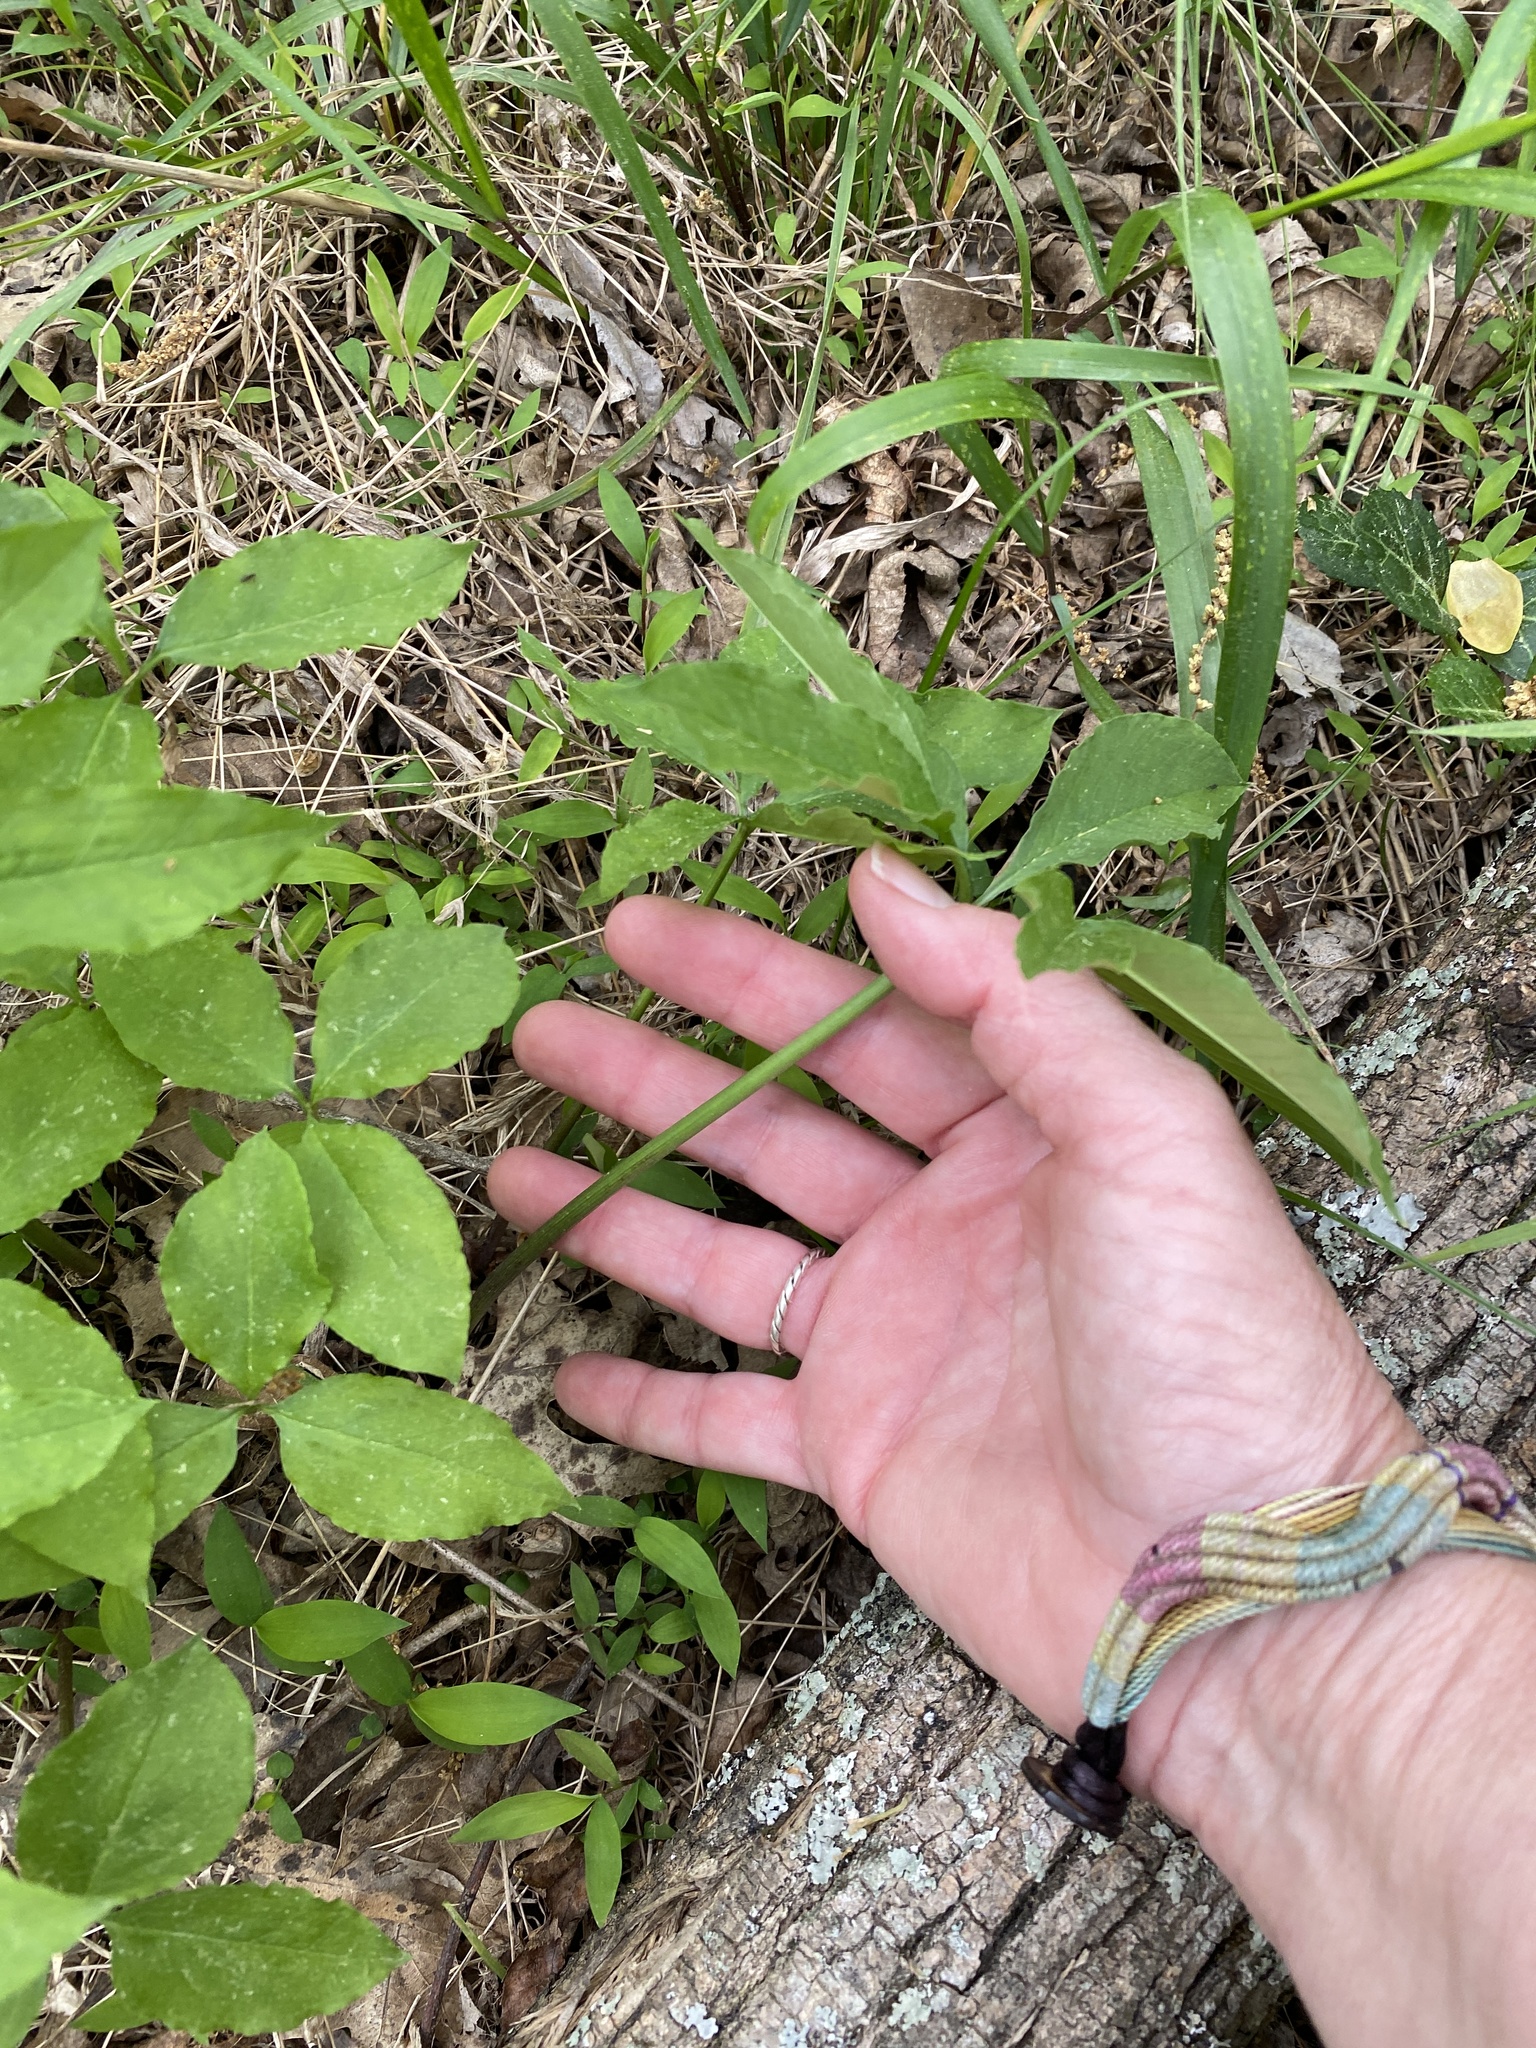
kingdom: Plantae
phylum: Tracheophyta
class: Liliopsida
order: Alismatales
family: Araceae
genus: Arisaema
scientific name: Arisaema dracontium
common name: Dragon-arum
